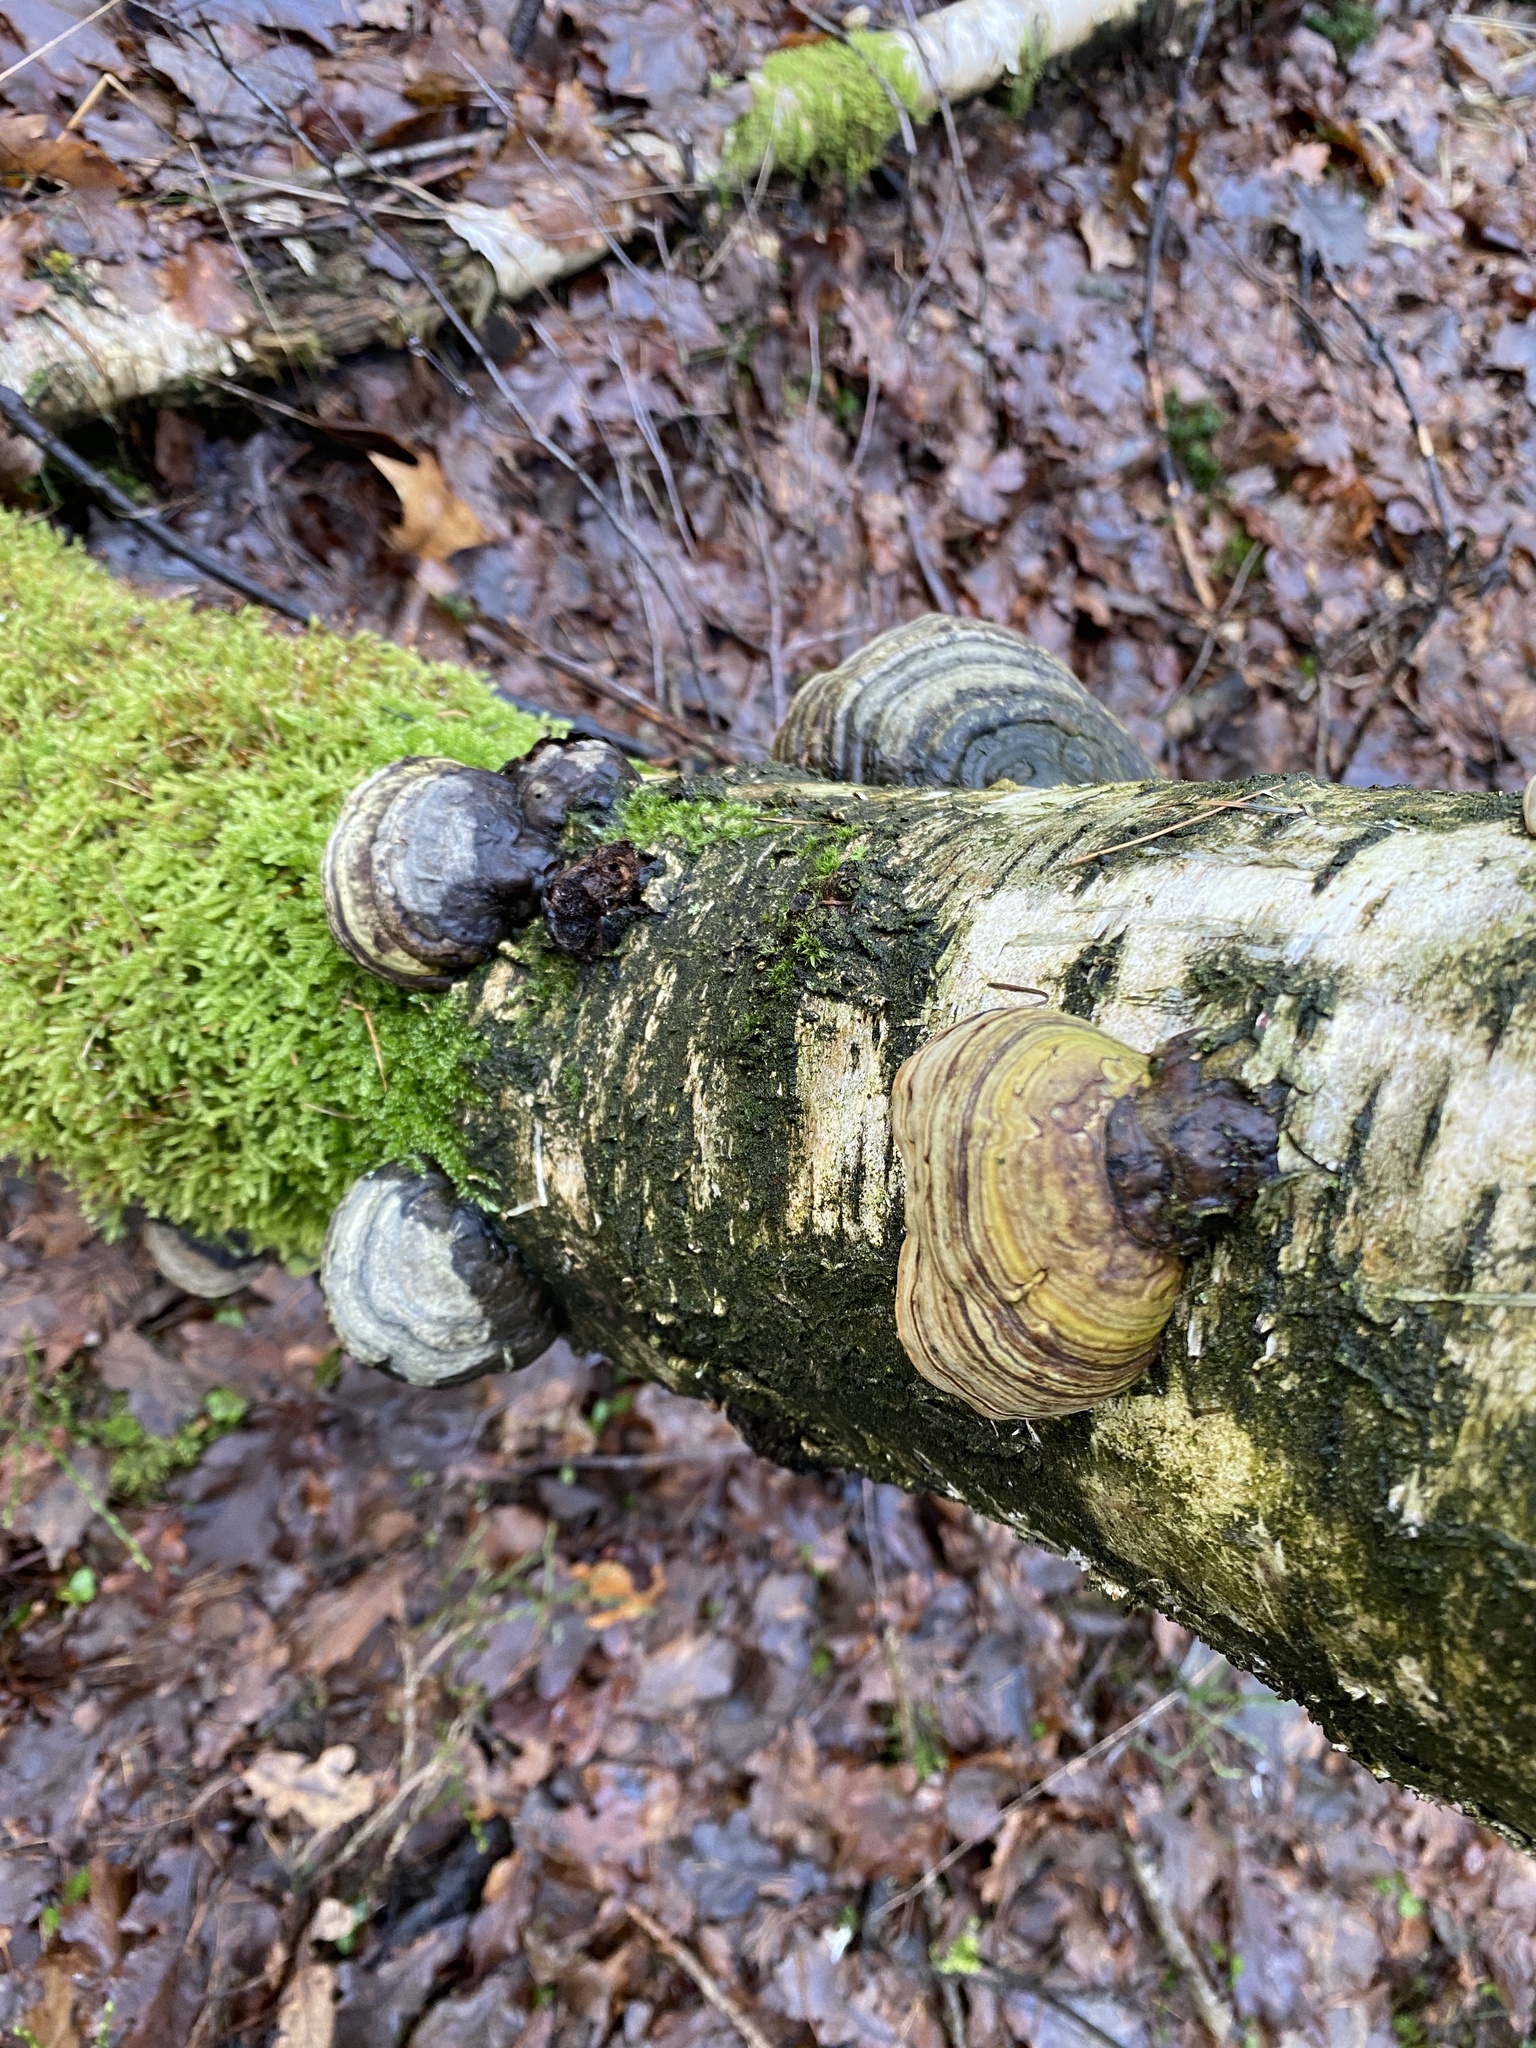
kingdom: Fungi
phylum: Basidiomycota
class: Agaricomycetes
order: Polyporales
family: Polyporaceae
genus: Fomes
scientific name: Fomes fomentarius
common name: Hoof fungus
